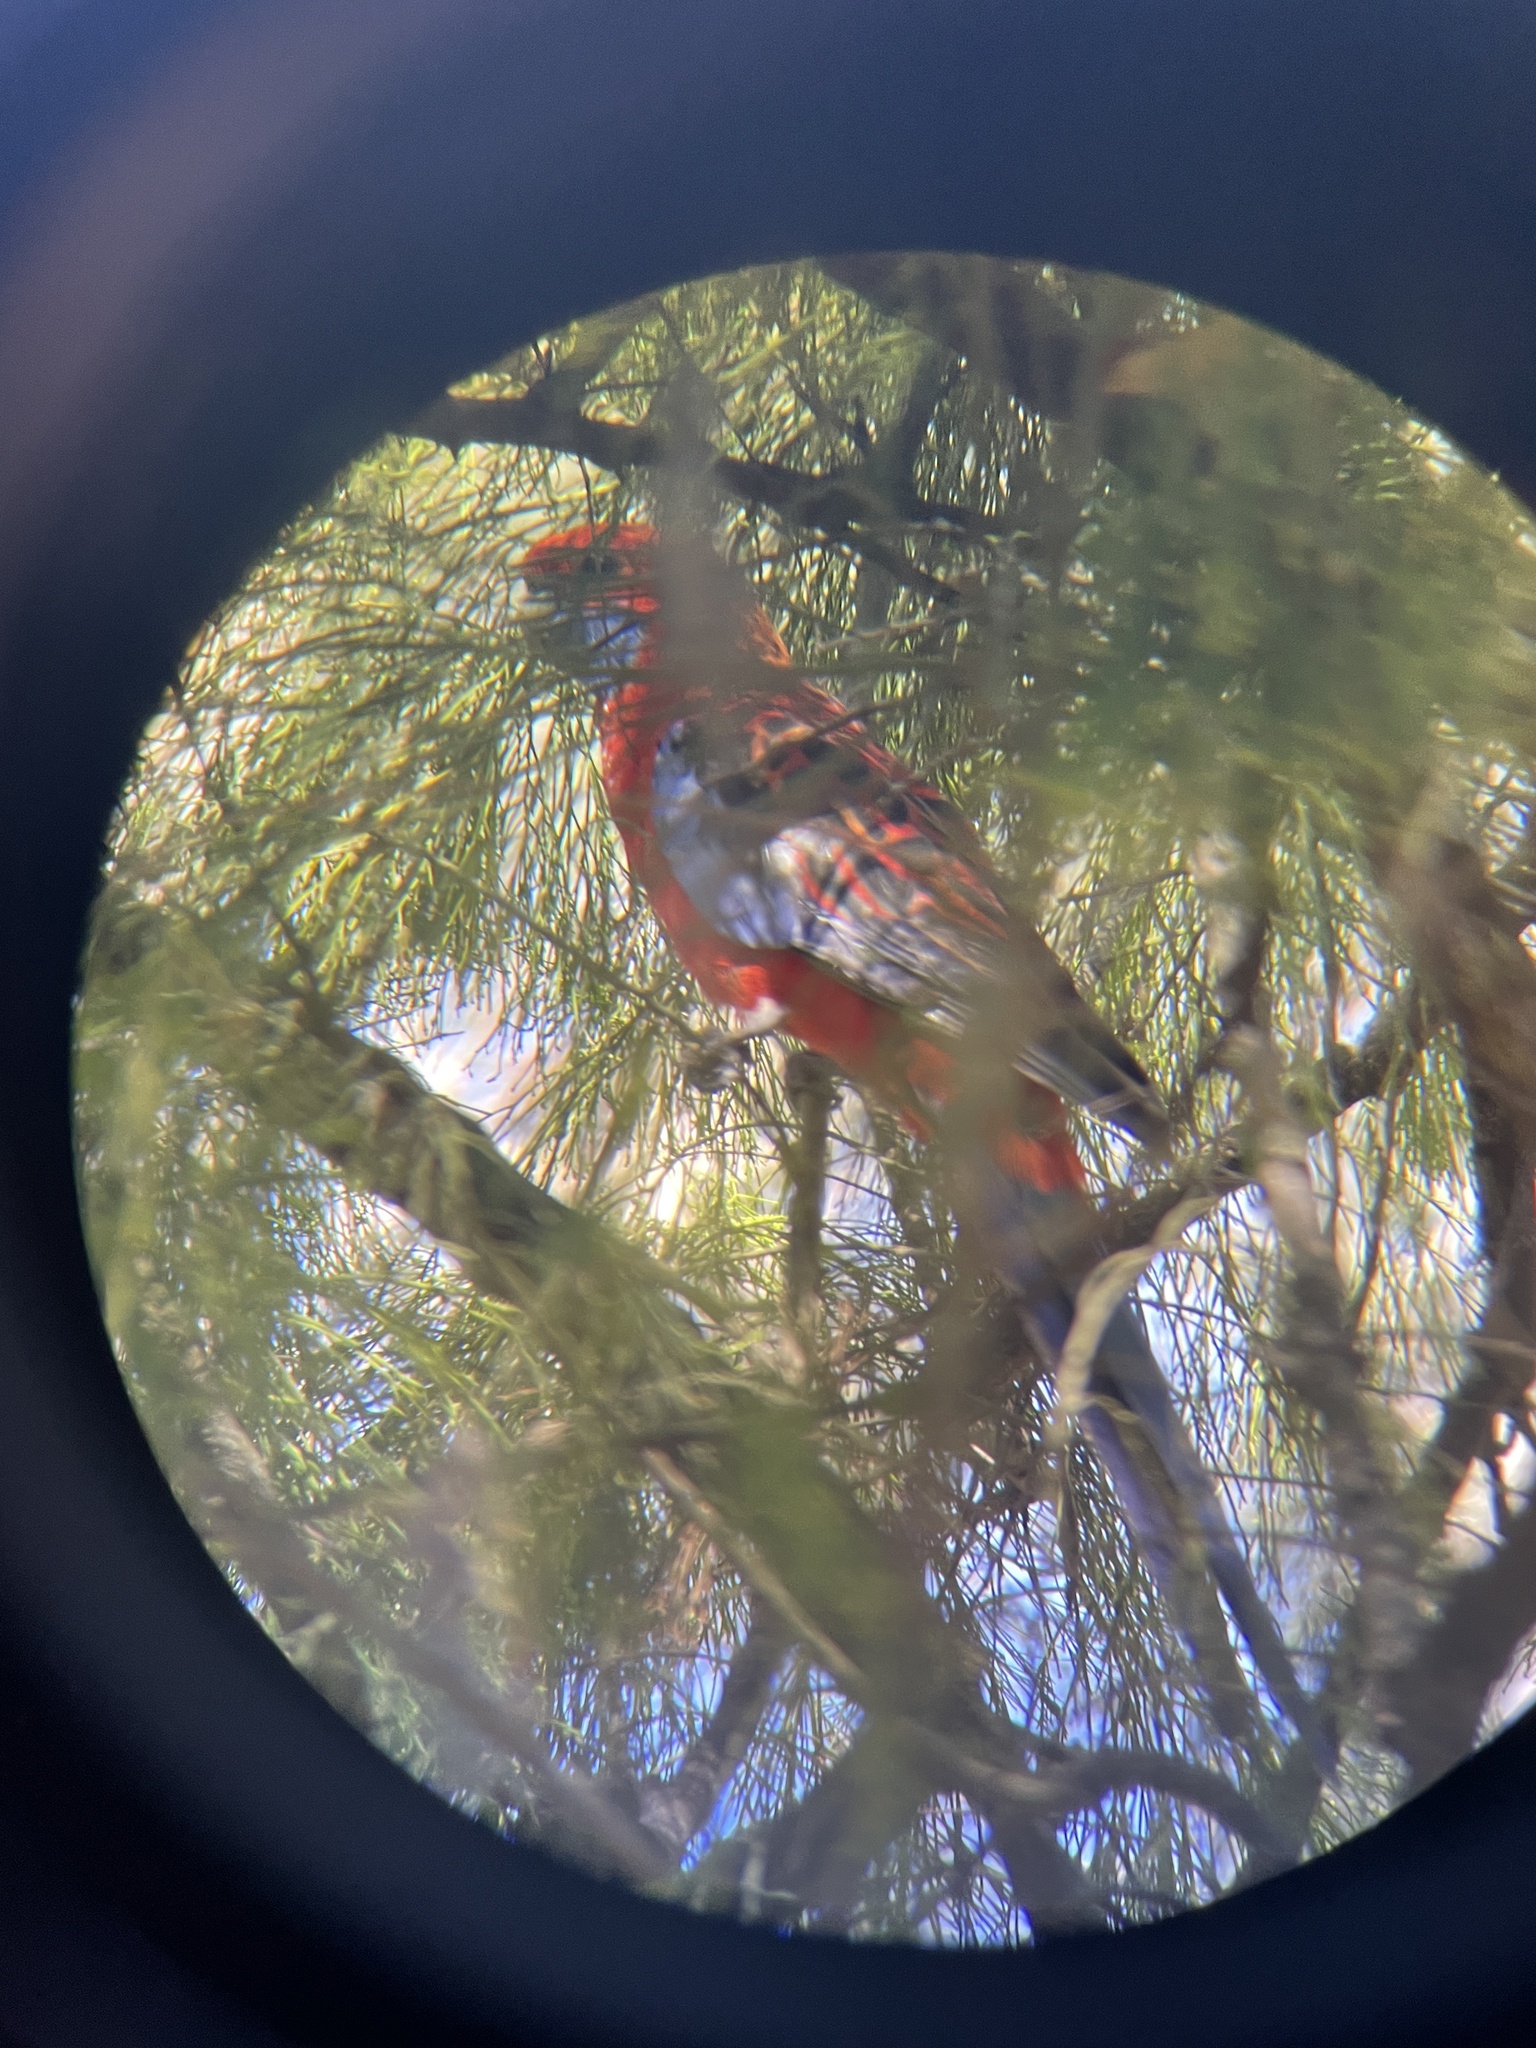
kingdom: Animalia
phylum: Chordata
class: Aves
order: Psittaciformes
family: Psittacidae
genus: Platycercus
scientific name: Platycercus elegans
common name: Crimson rosella
